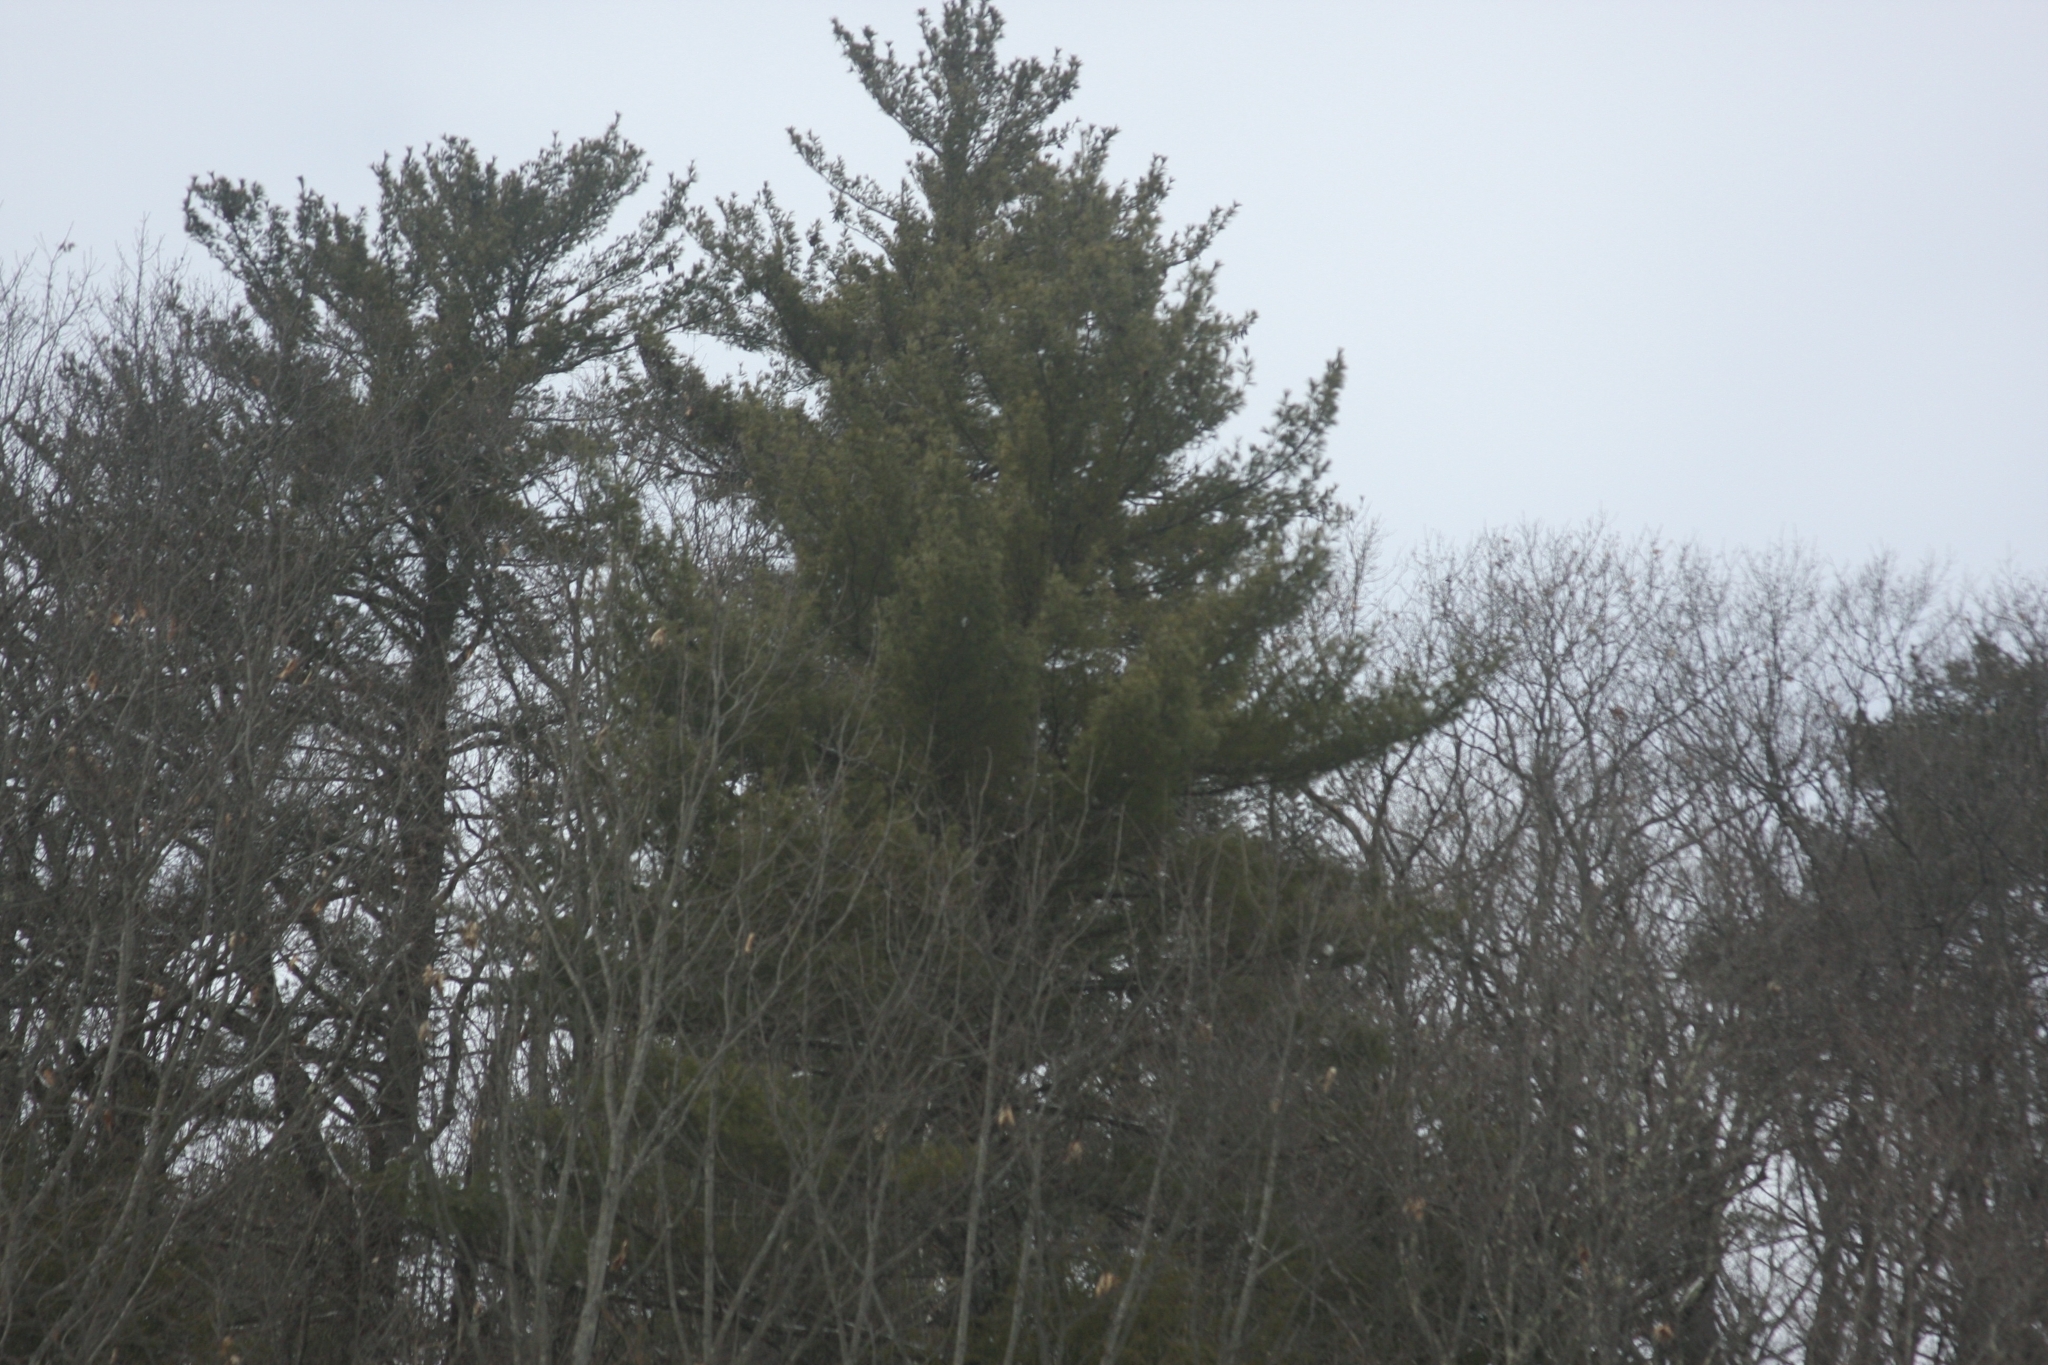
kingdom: Plantae
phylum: Tracheophyta
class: Pinopsida
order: Pinales
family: Pinaceae
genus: Pinus
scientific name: Pinus strobus
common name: Weymouth pine
